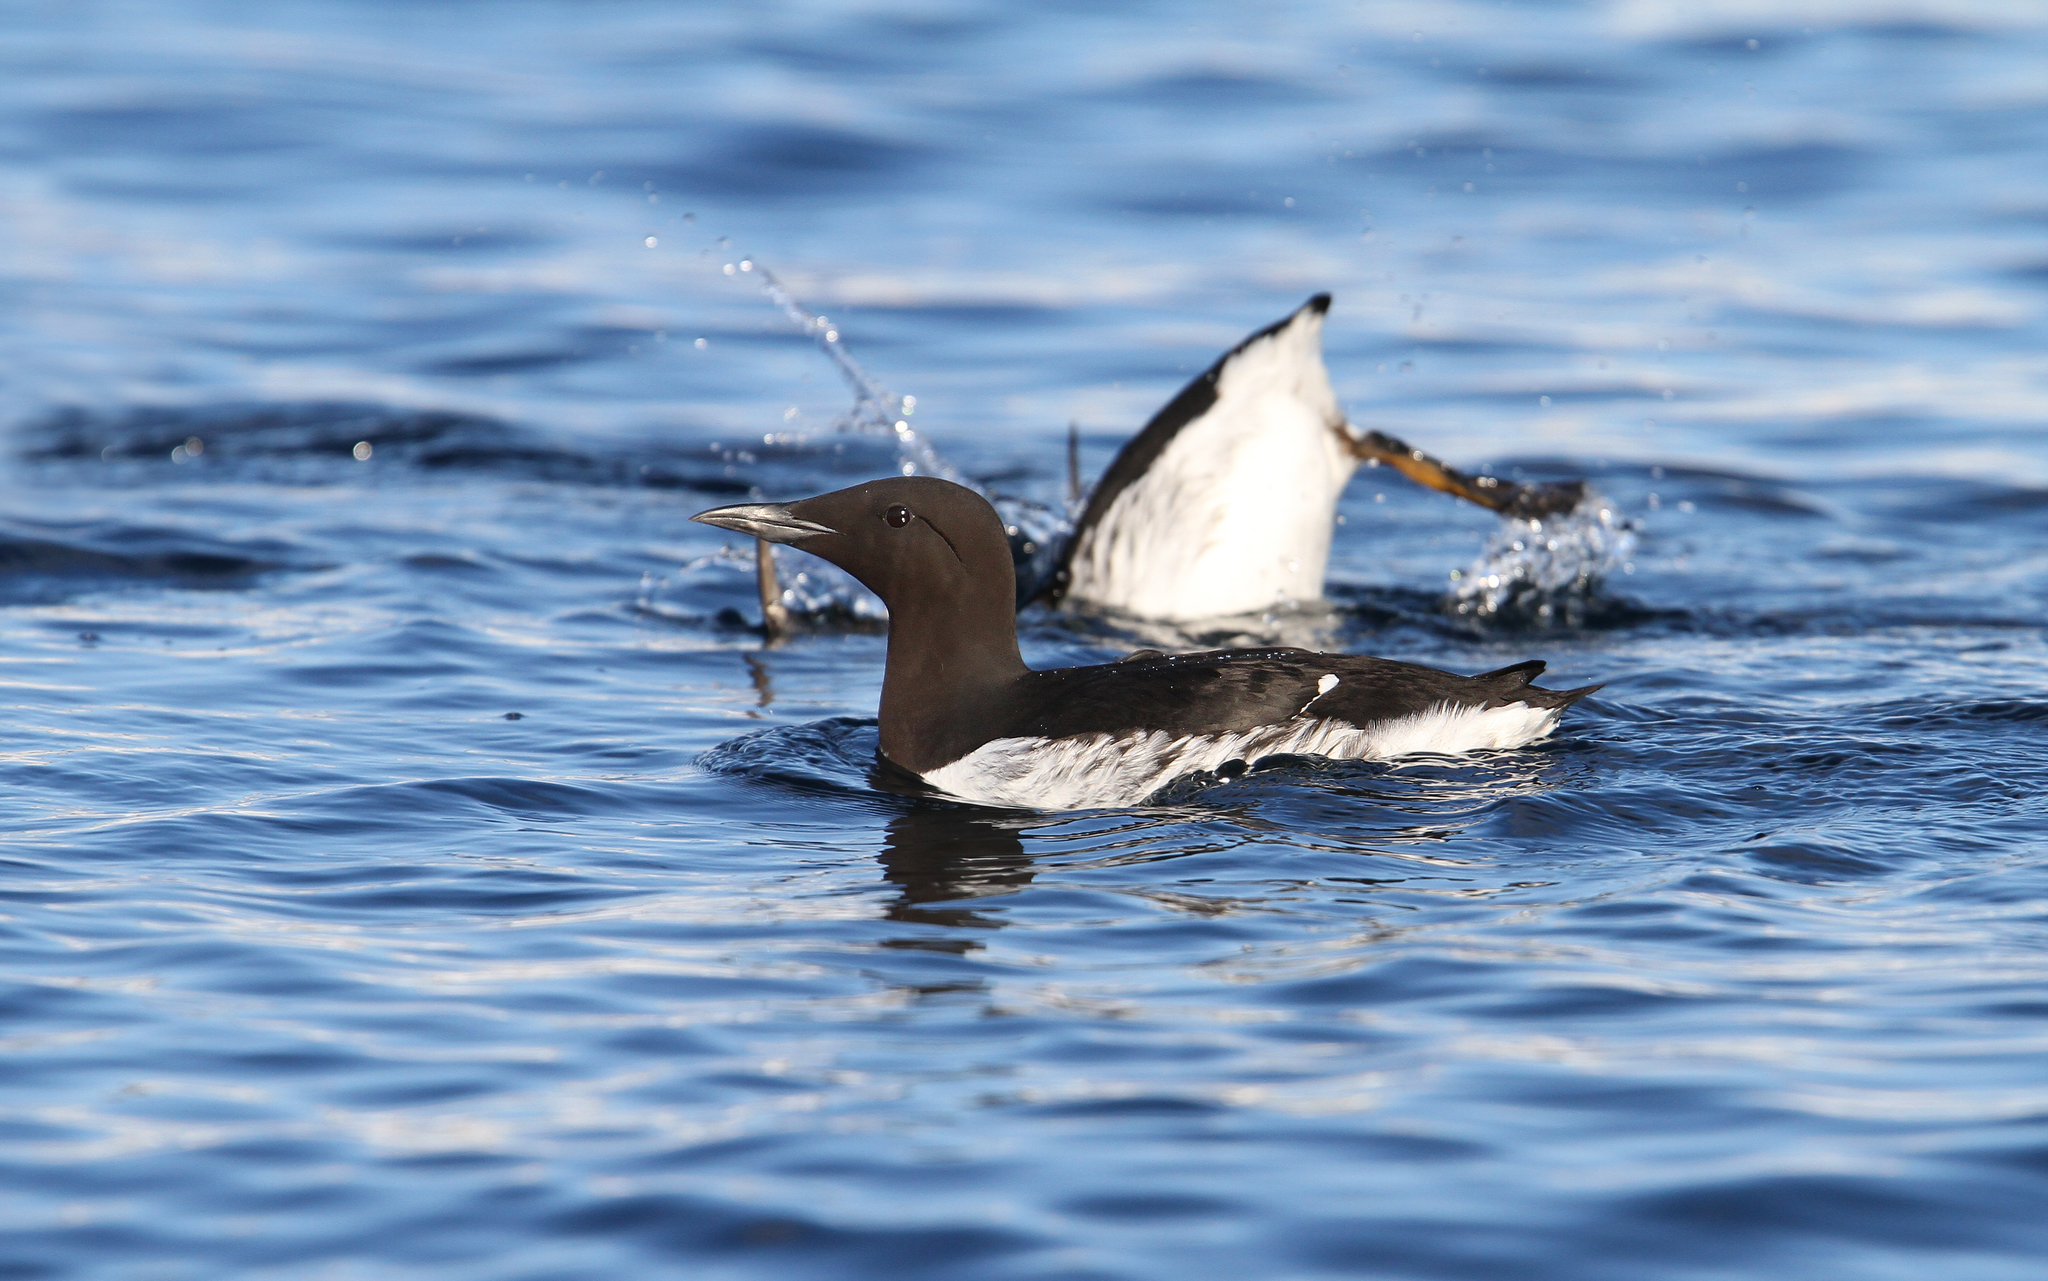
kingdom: Animalia
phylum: Chordata
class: Aves
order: Charadriiformes
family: Alcidae
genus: Uria
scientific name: Uria aalge
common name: Common murre
